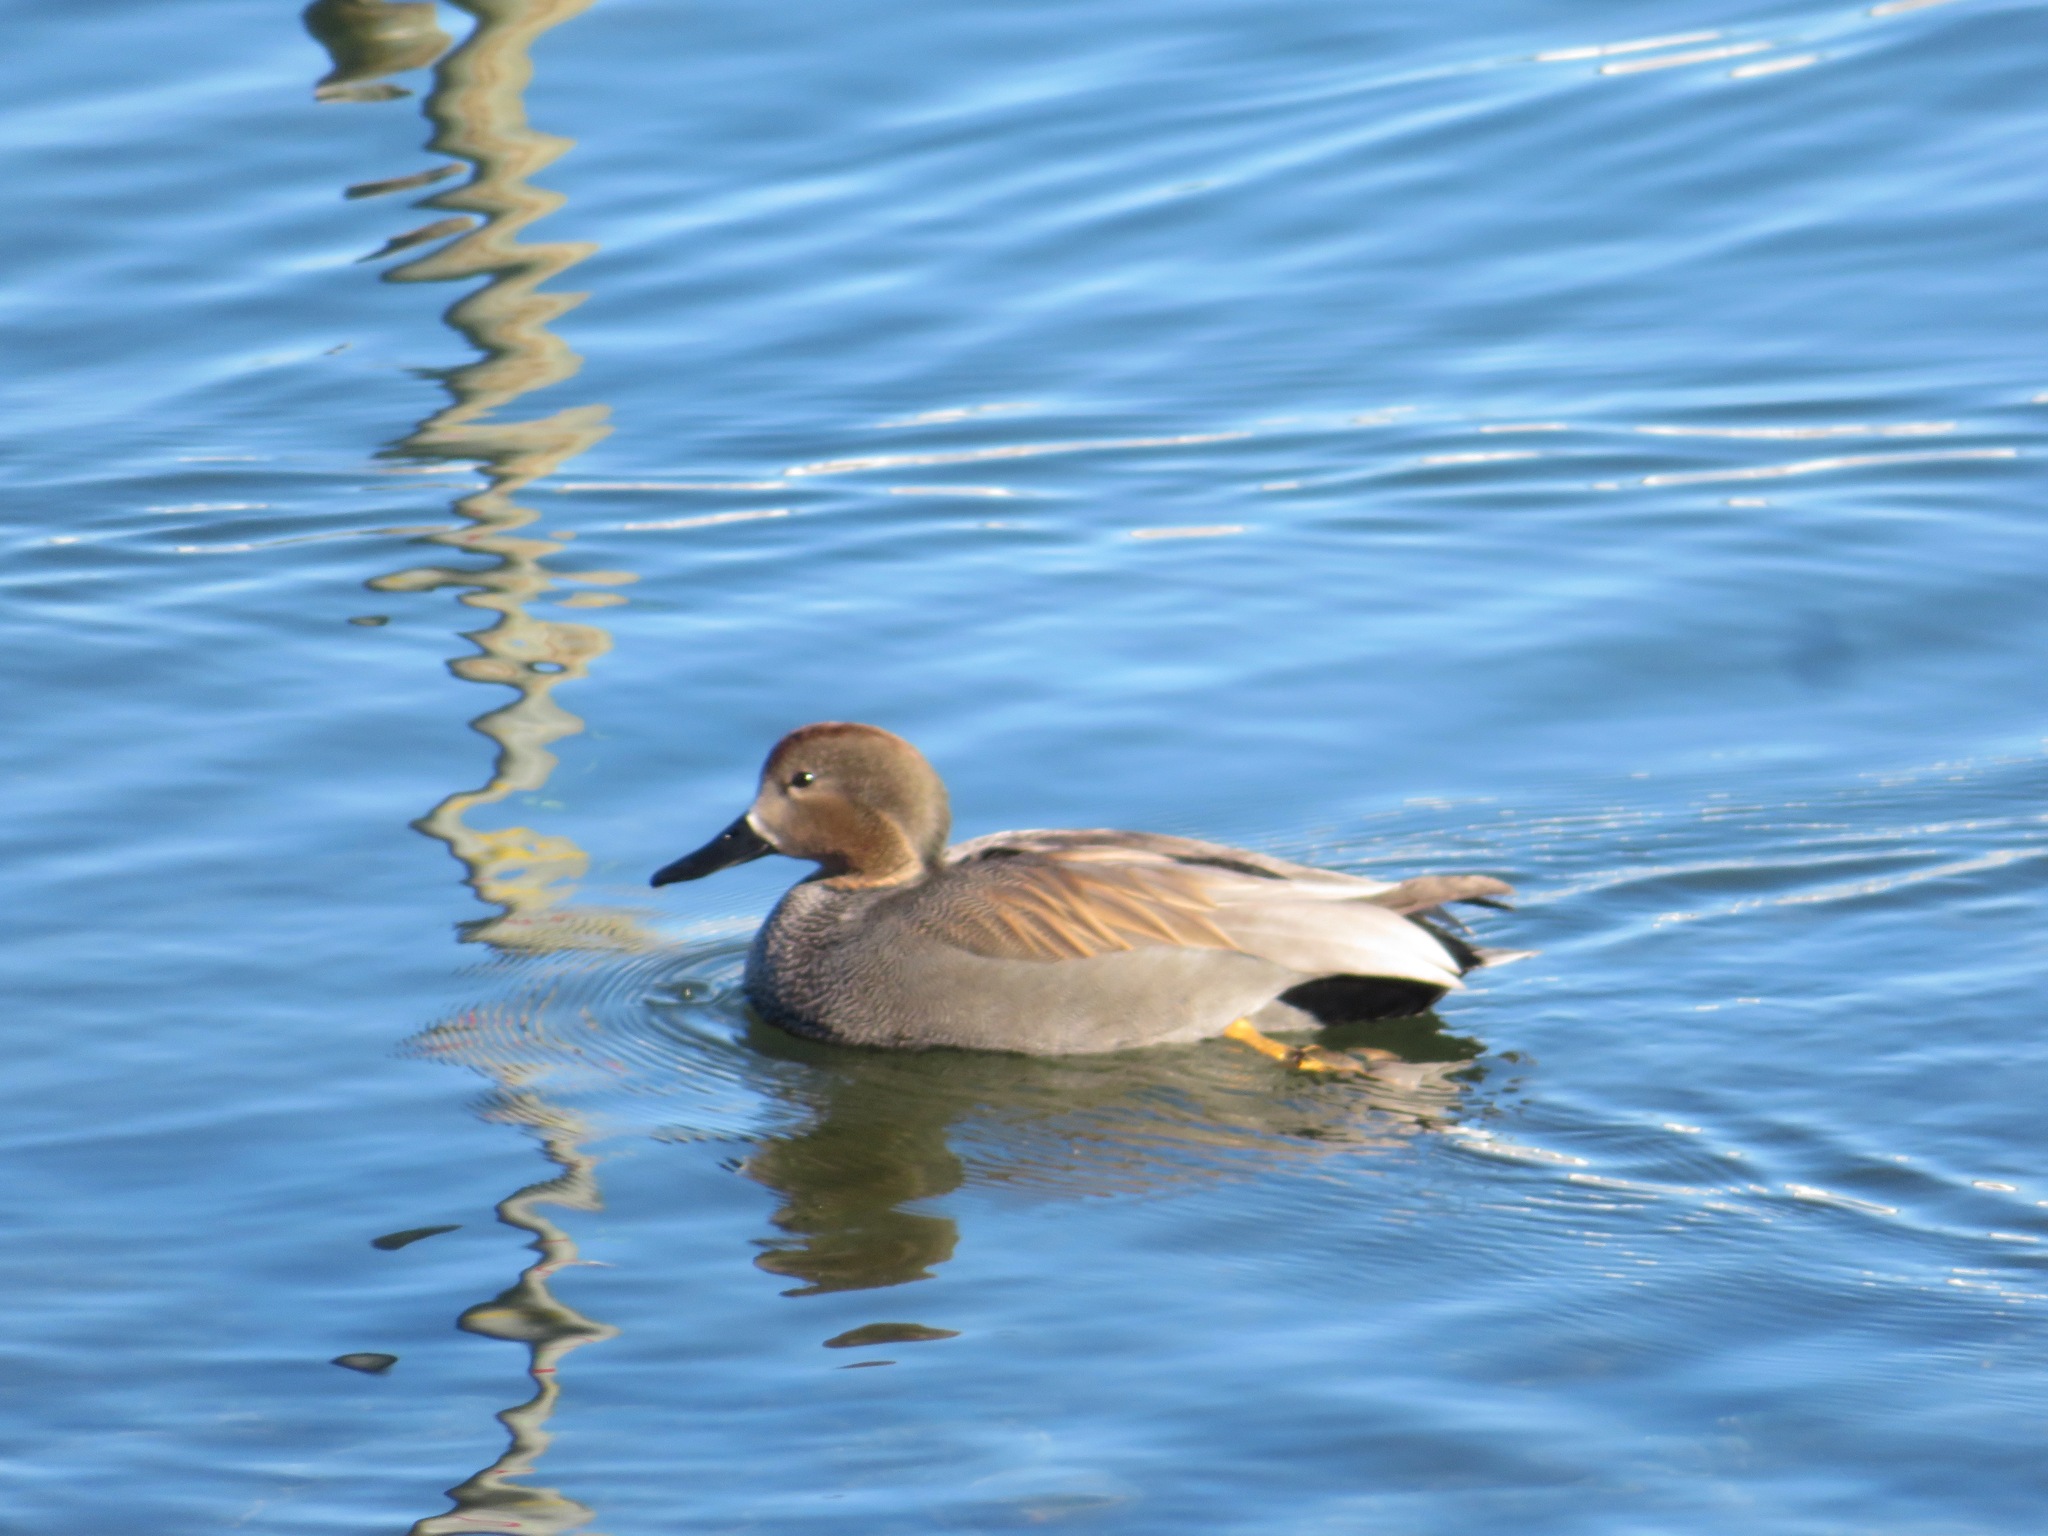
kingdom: Animalia
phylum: Chordata
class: Aves
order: Anseriformes
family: Anatidae
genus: Mareca
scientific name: Mareca strepera
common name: Gadwall
